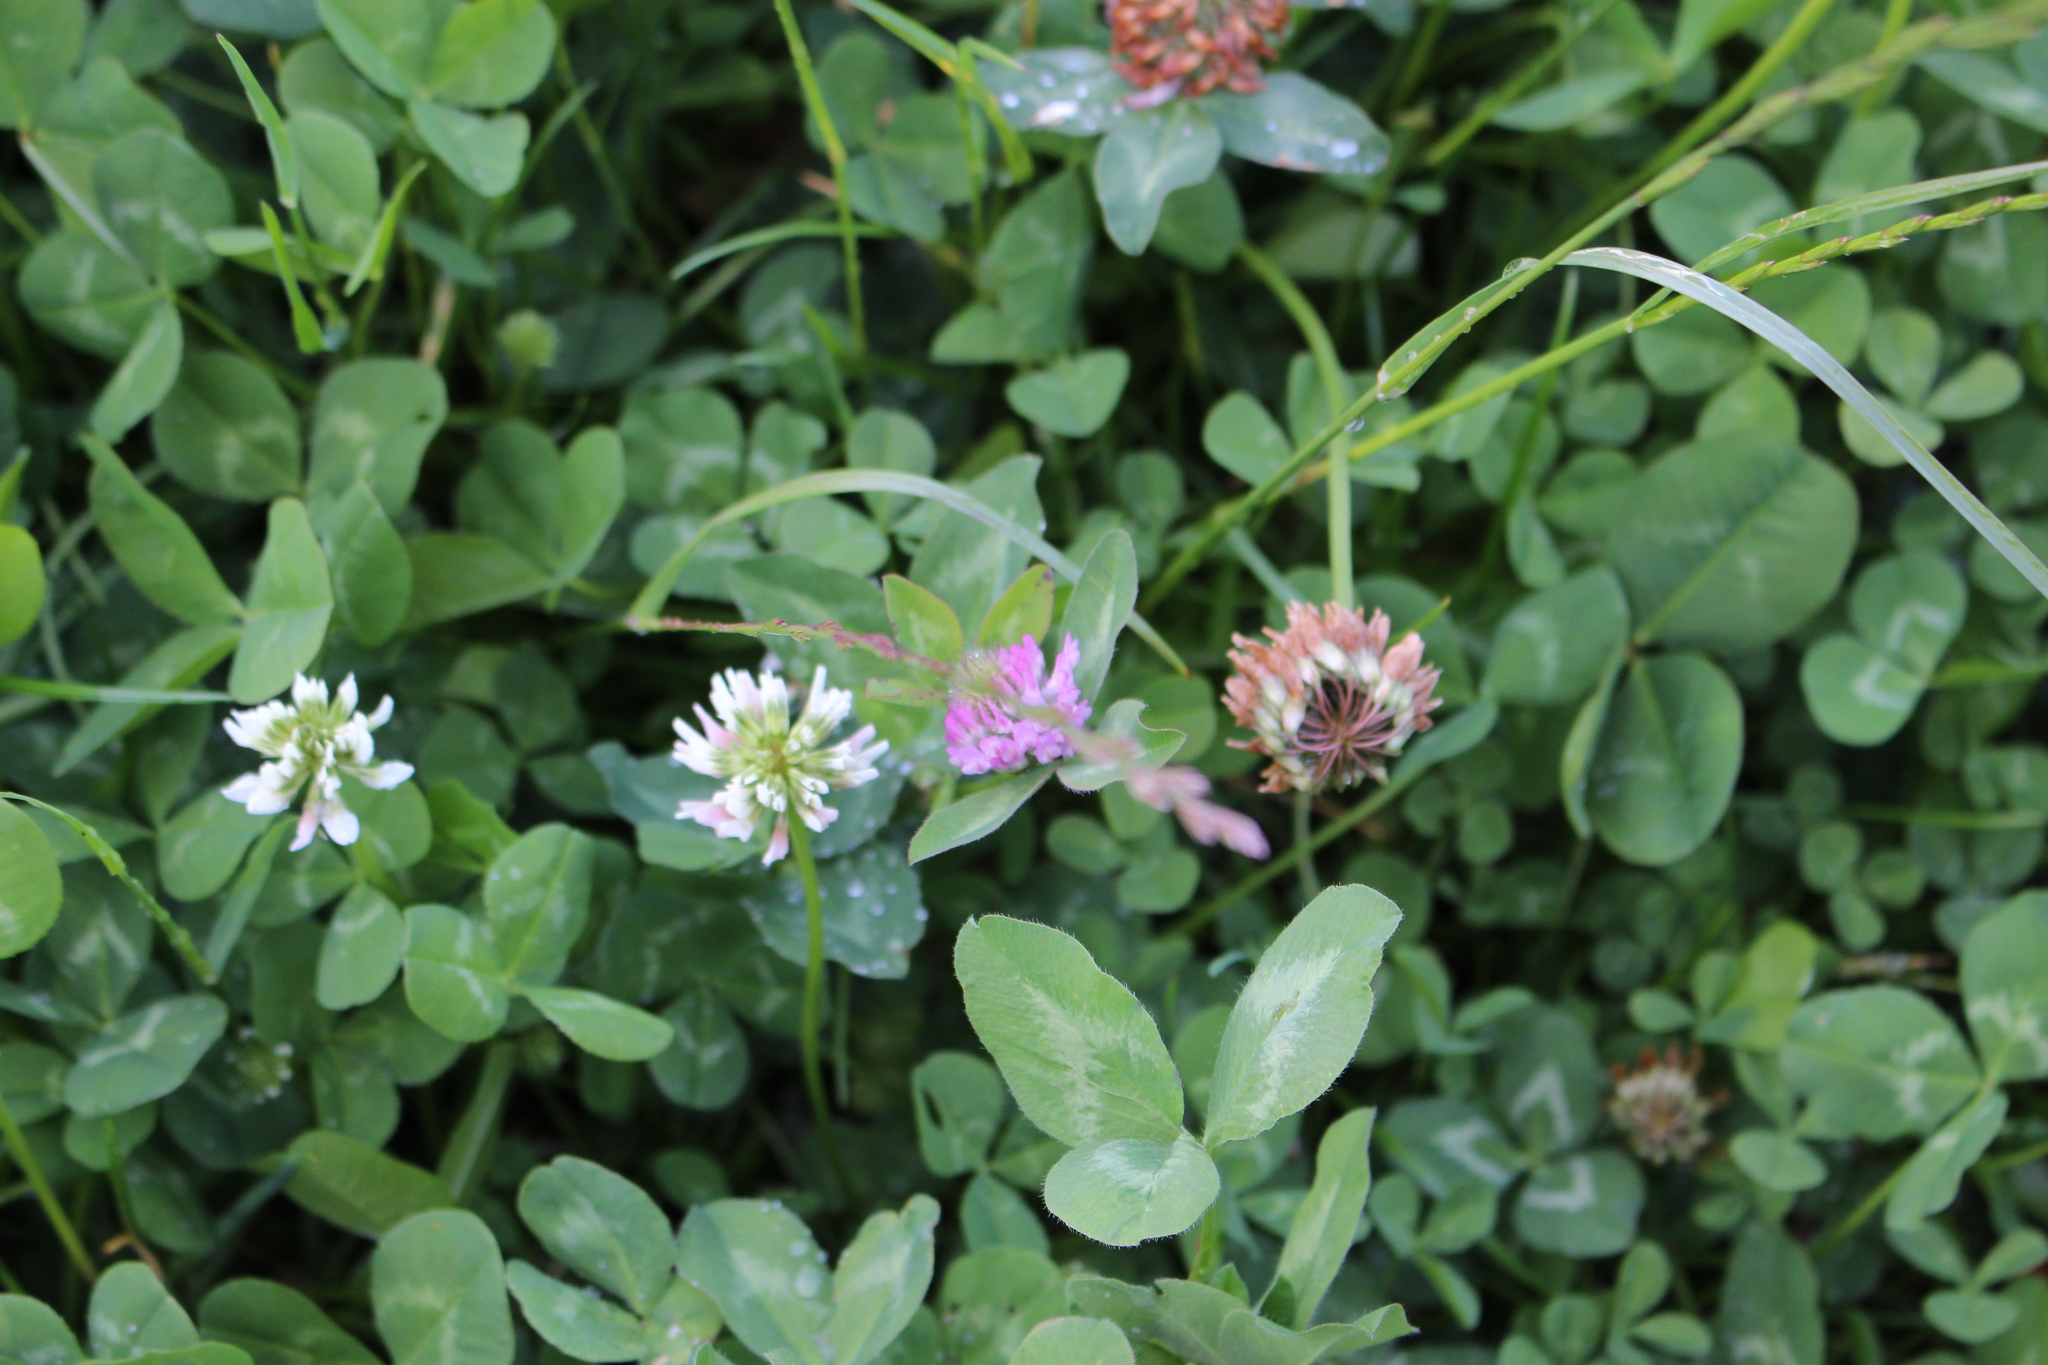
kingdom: Plantae
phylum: Tracheophyta
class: Magnoliopsida
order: Fabales
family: Fabaceae
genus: Trifolium
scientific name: Trifolium repens
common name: White clover
